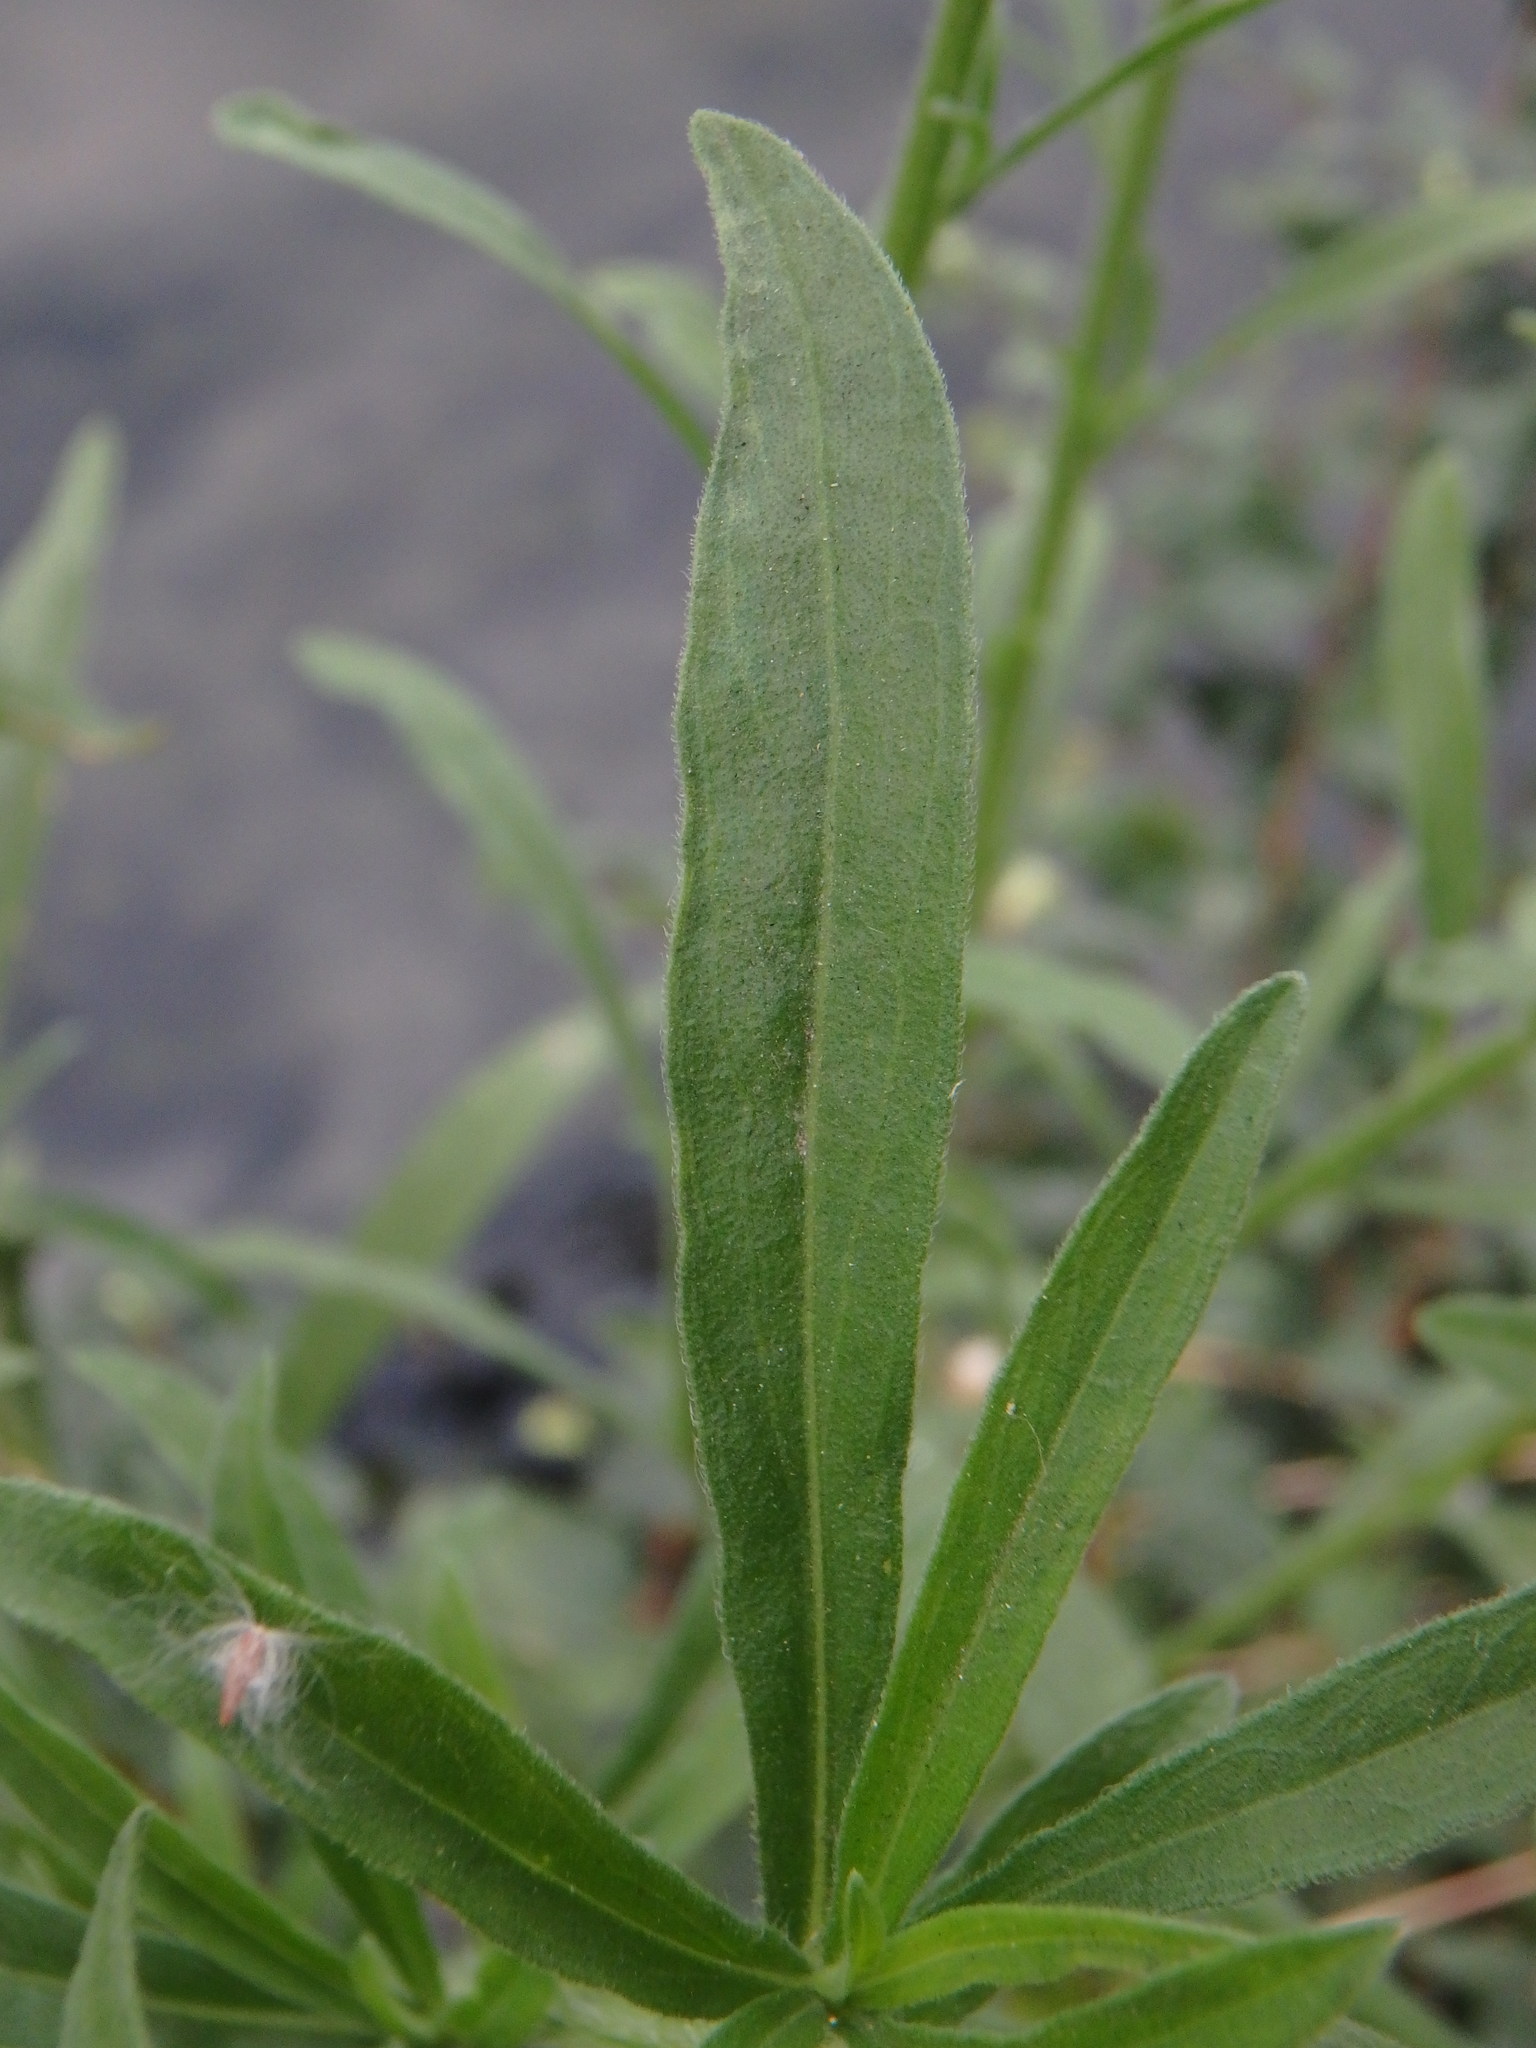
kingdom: Plantae
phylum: Tracheophyta
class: Magnoliopsida
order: Asterales
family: Asteraceae
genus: Erigeron
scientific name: Erigeron sumatrensis
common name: Daisy
